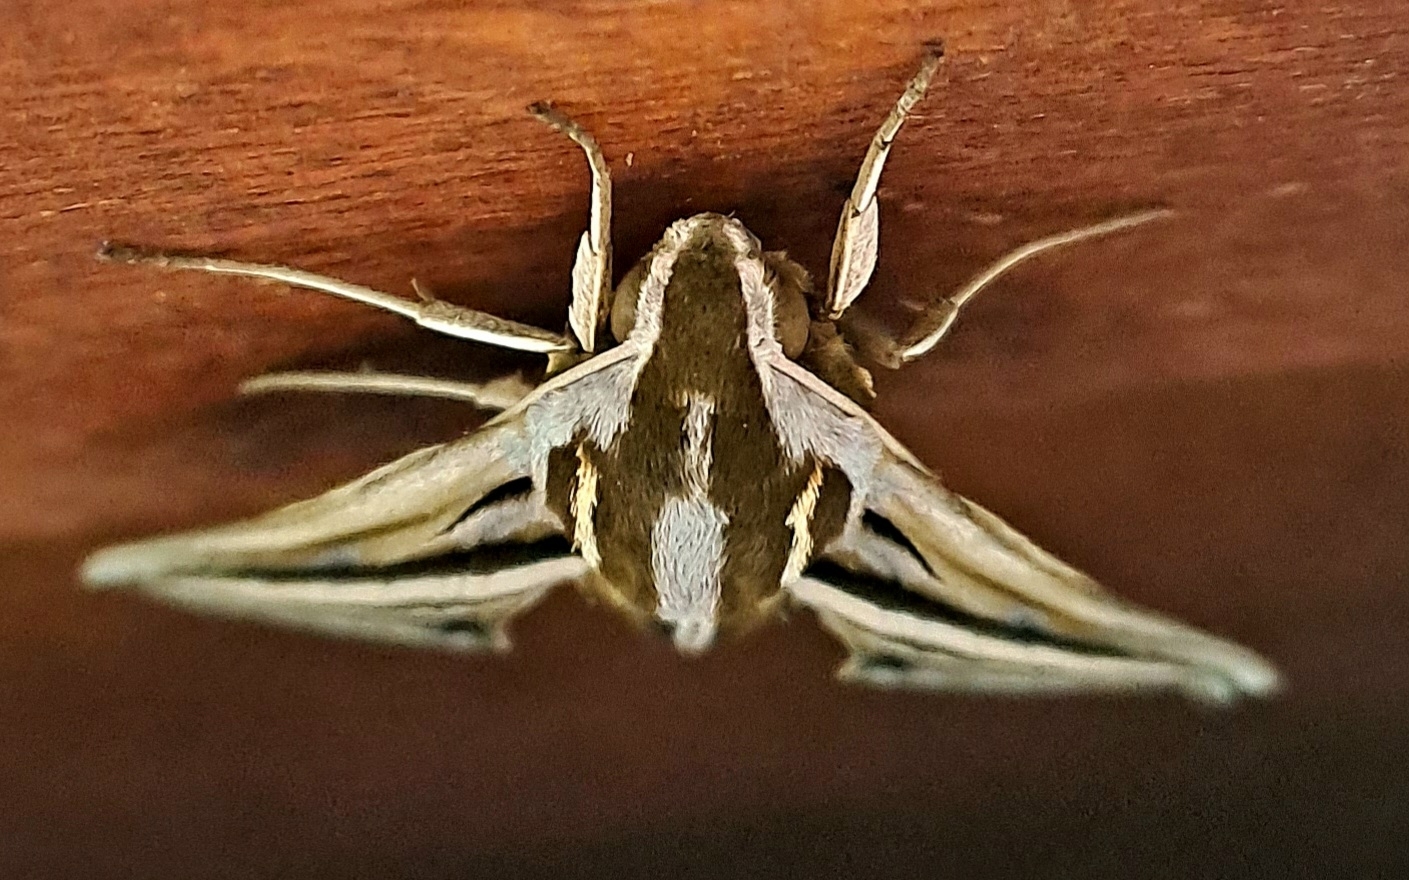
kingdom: Animalia
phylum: Arthropoda
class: Insecta
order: Lepidoptera
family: Sphingidae
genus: Theretra
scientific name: Theretra cajus
